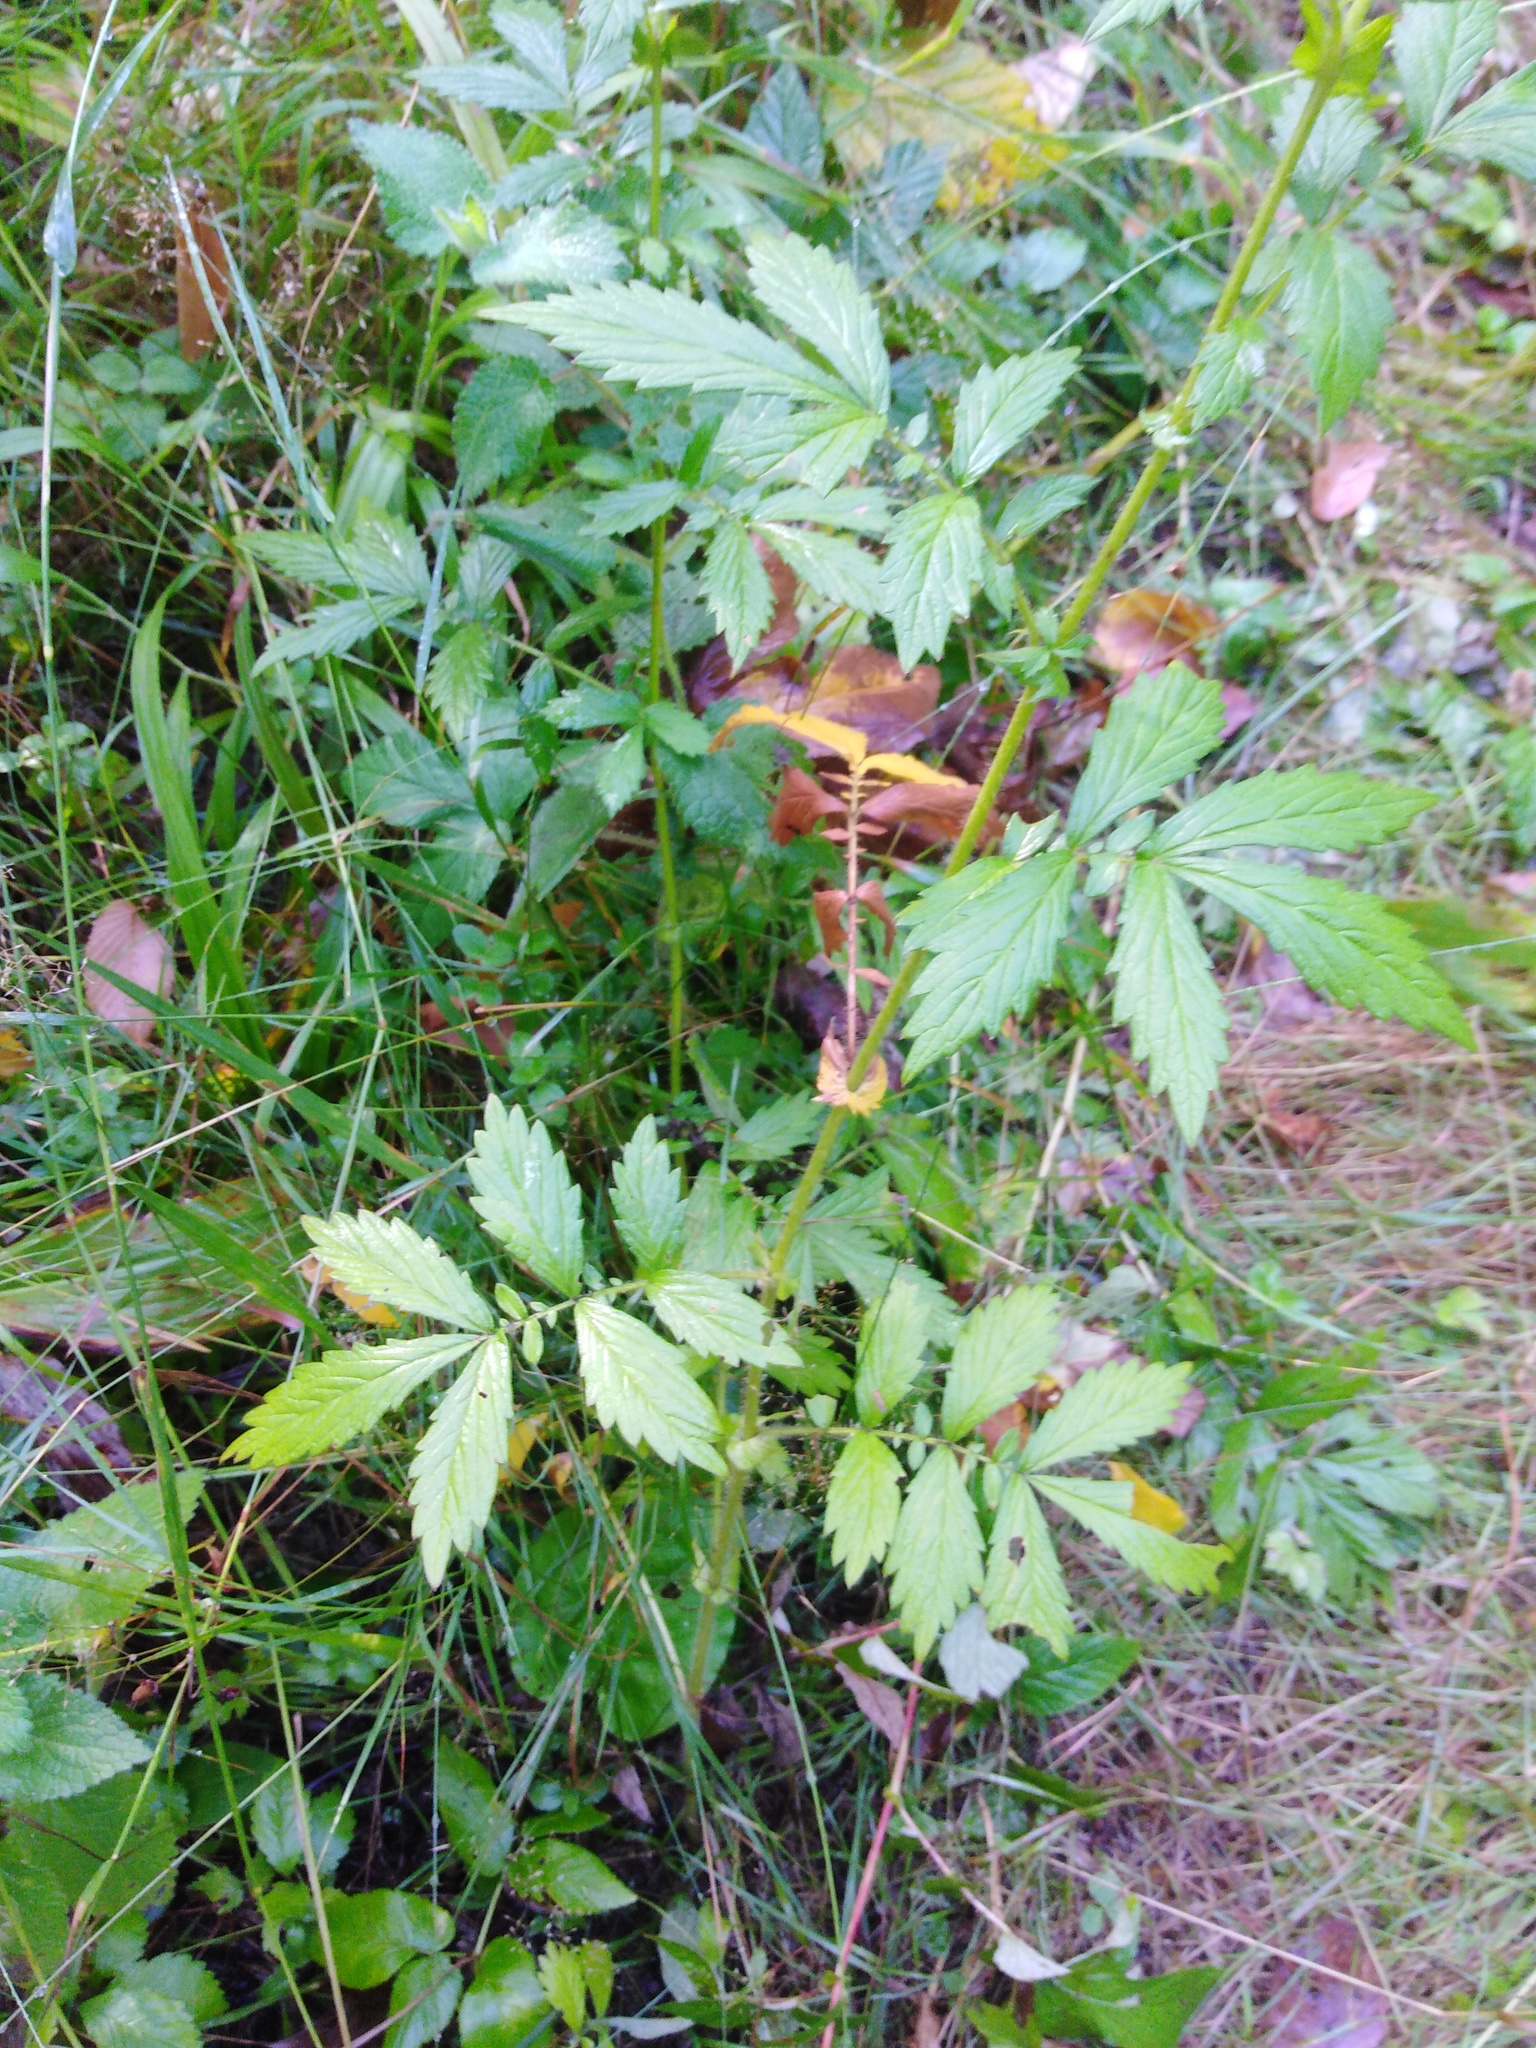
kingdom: Plantae
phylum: Tracheophyta
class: Magnoliopsida
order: Rosales
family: Rosaceae
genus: Agrimonia
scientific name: Agrimonia pilosa
